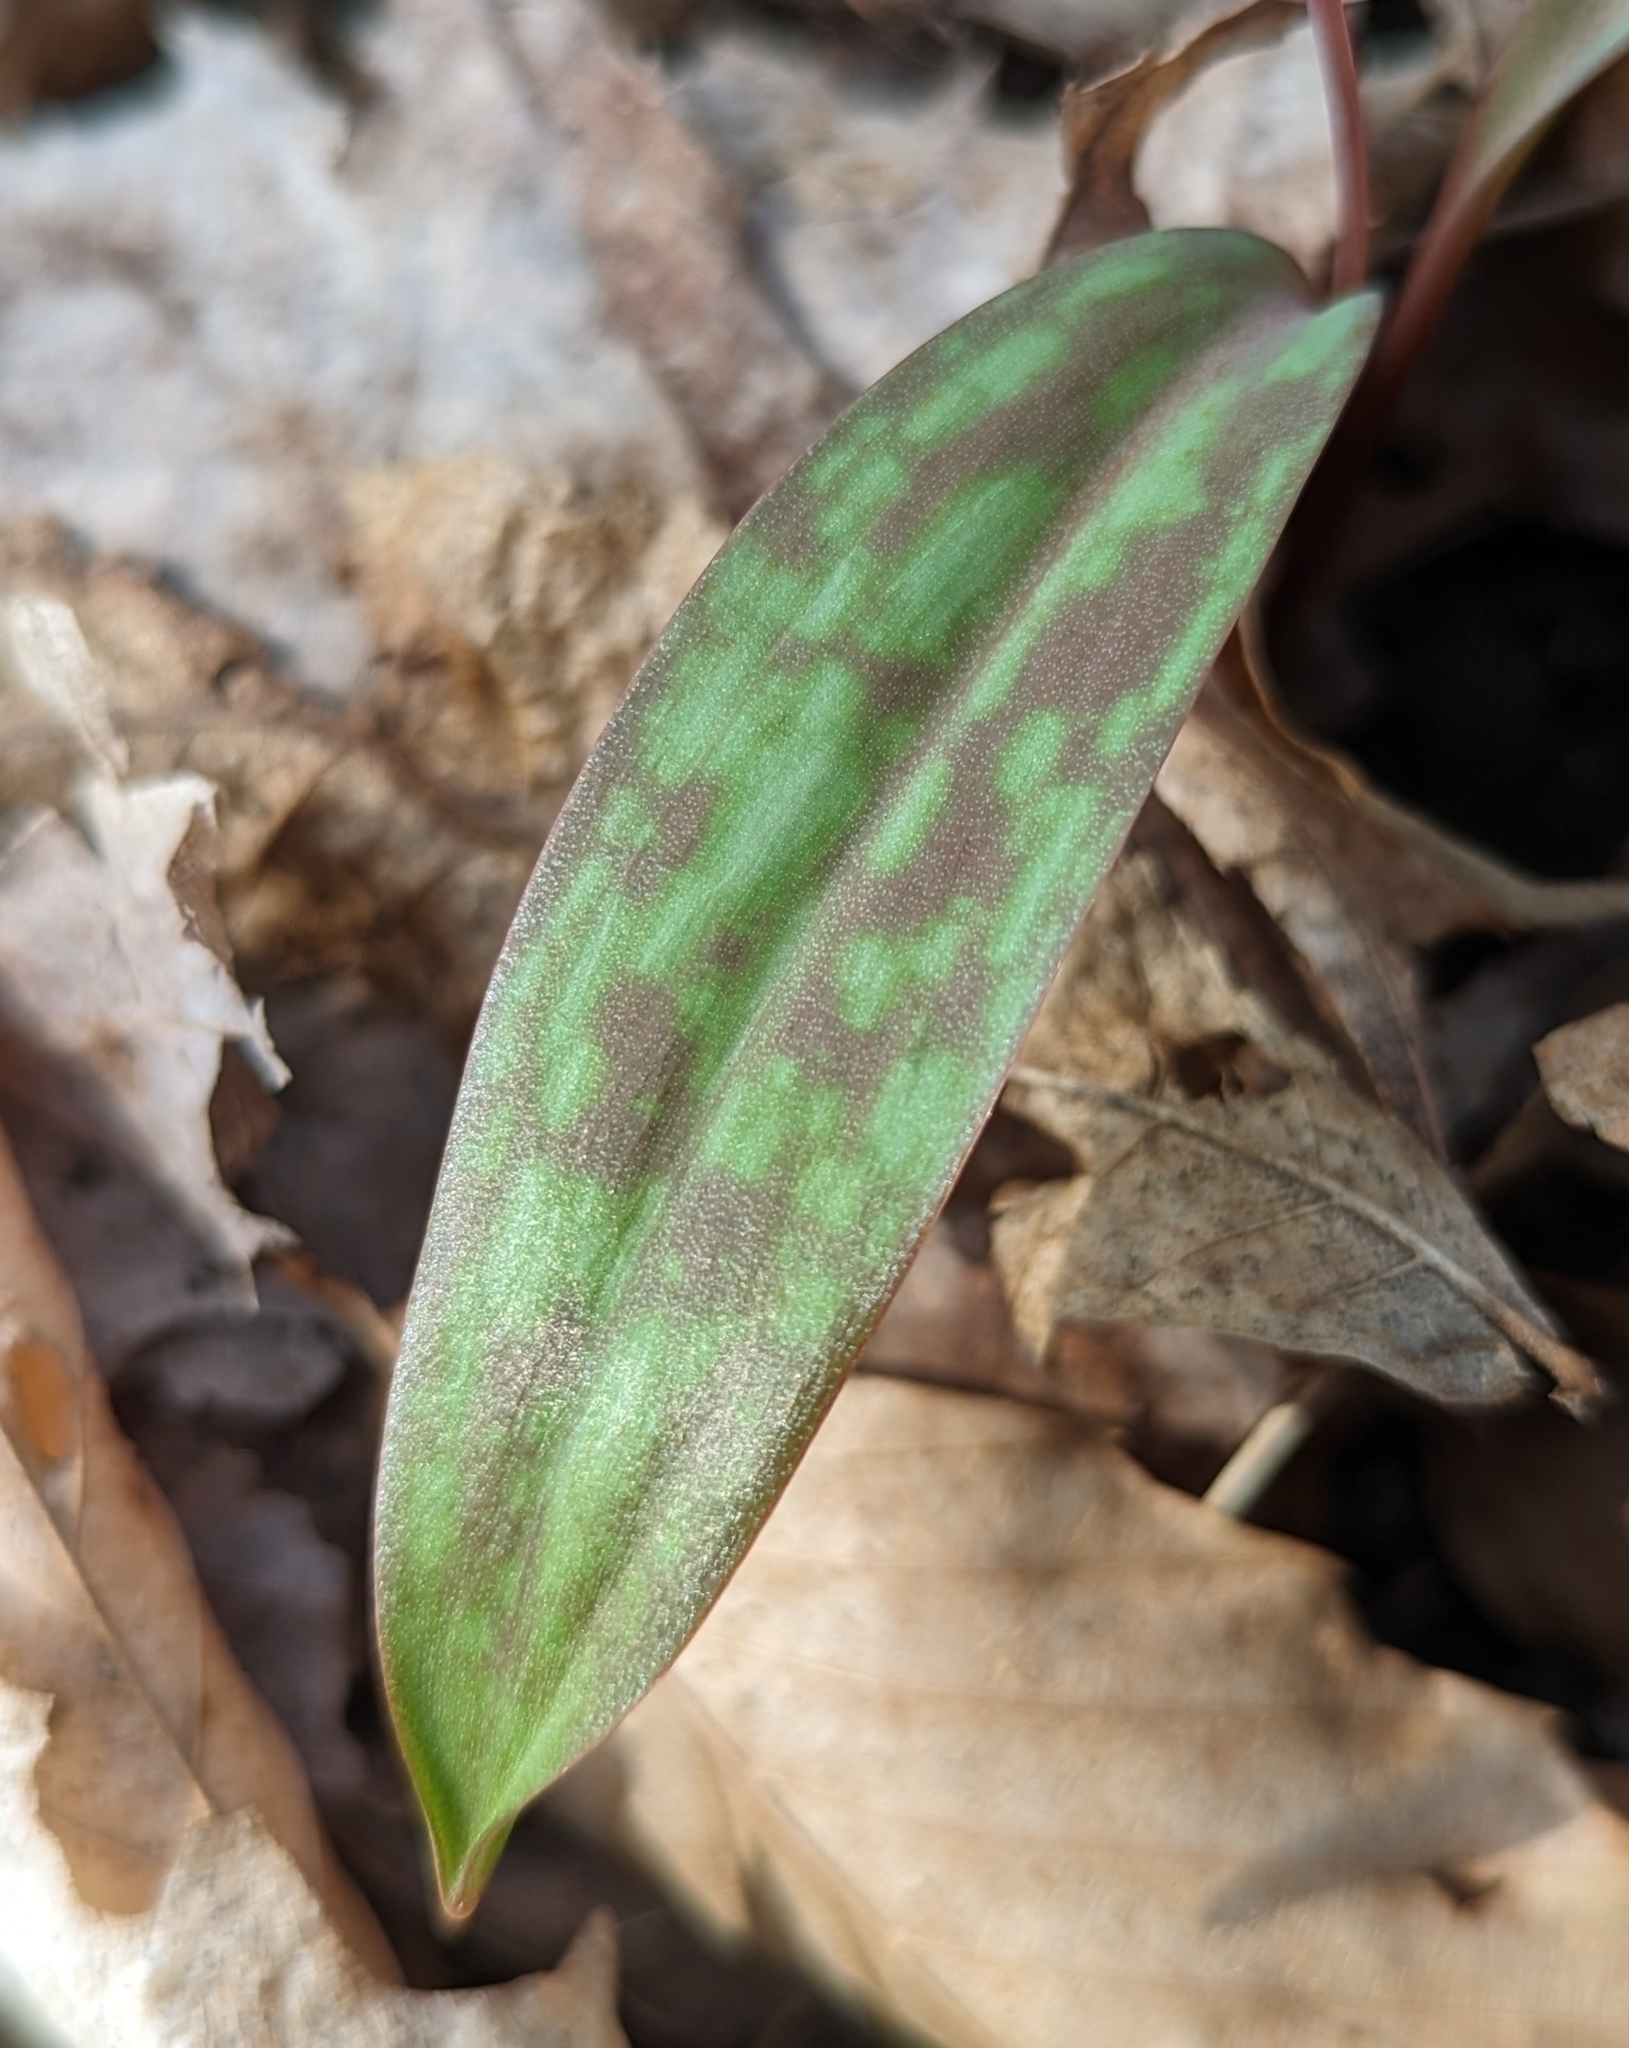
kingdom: Plantae
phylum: Tracheophyta
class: Liliopsida
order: Liliales
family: Liliaceae
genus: Erythronium
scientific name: Erythronium americanum
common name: Yellow adder's-tongue
